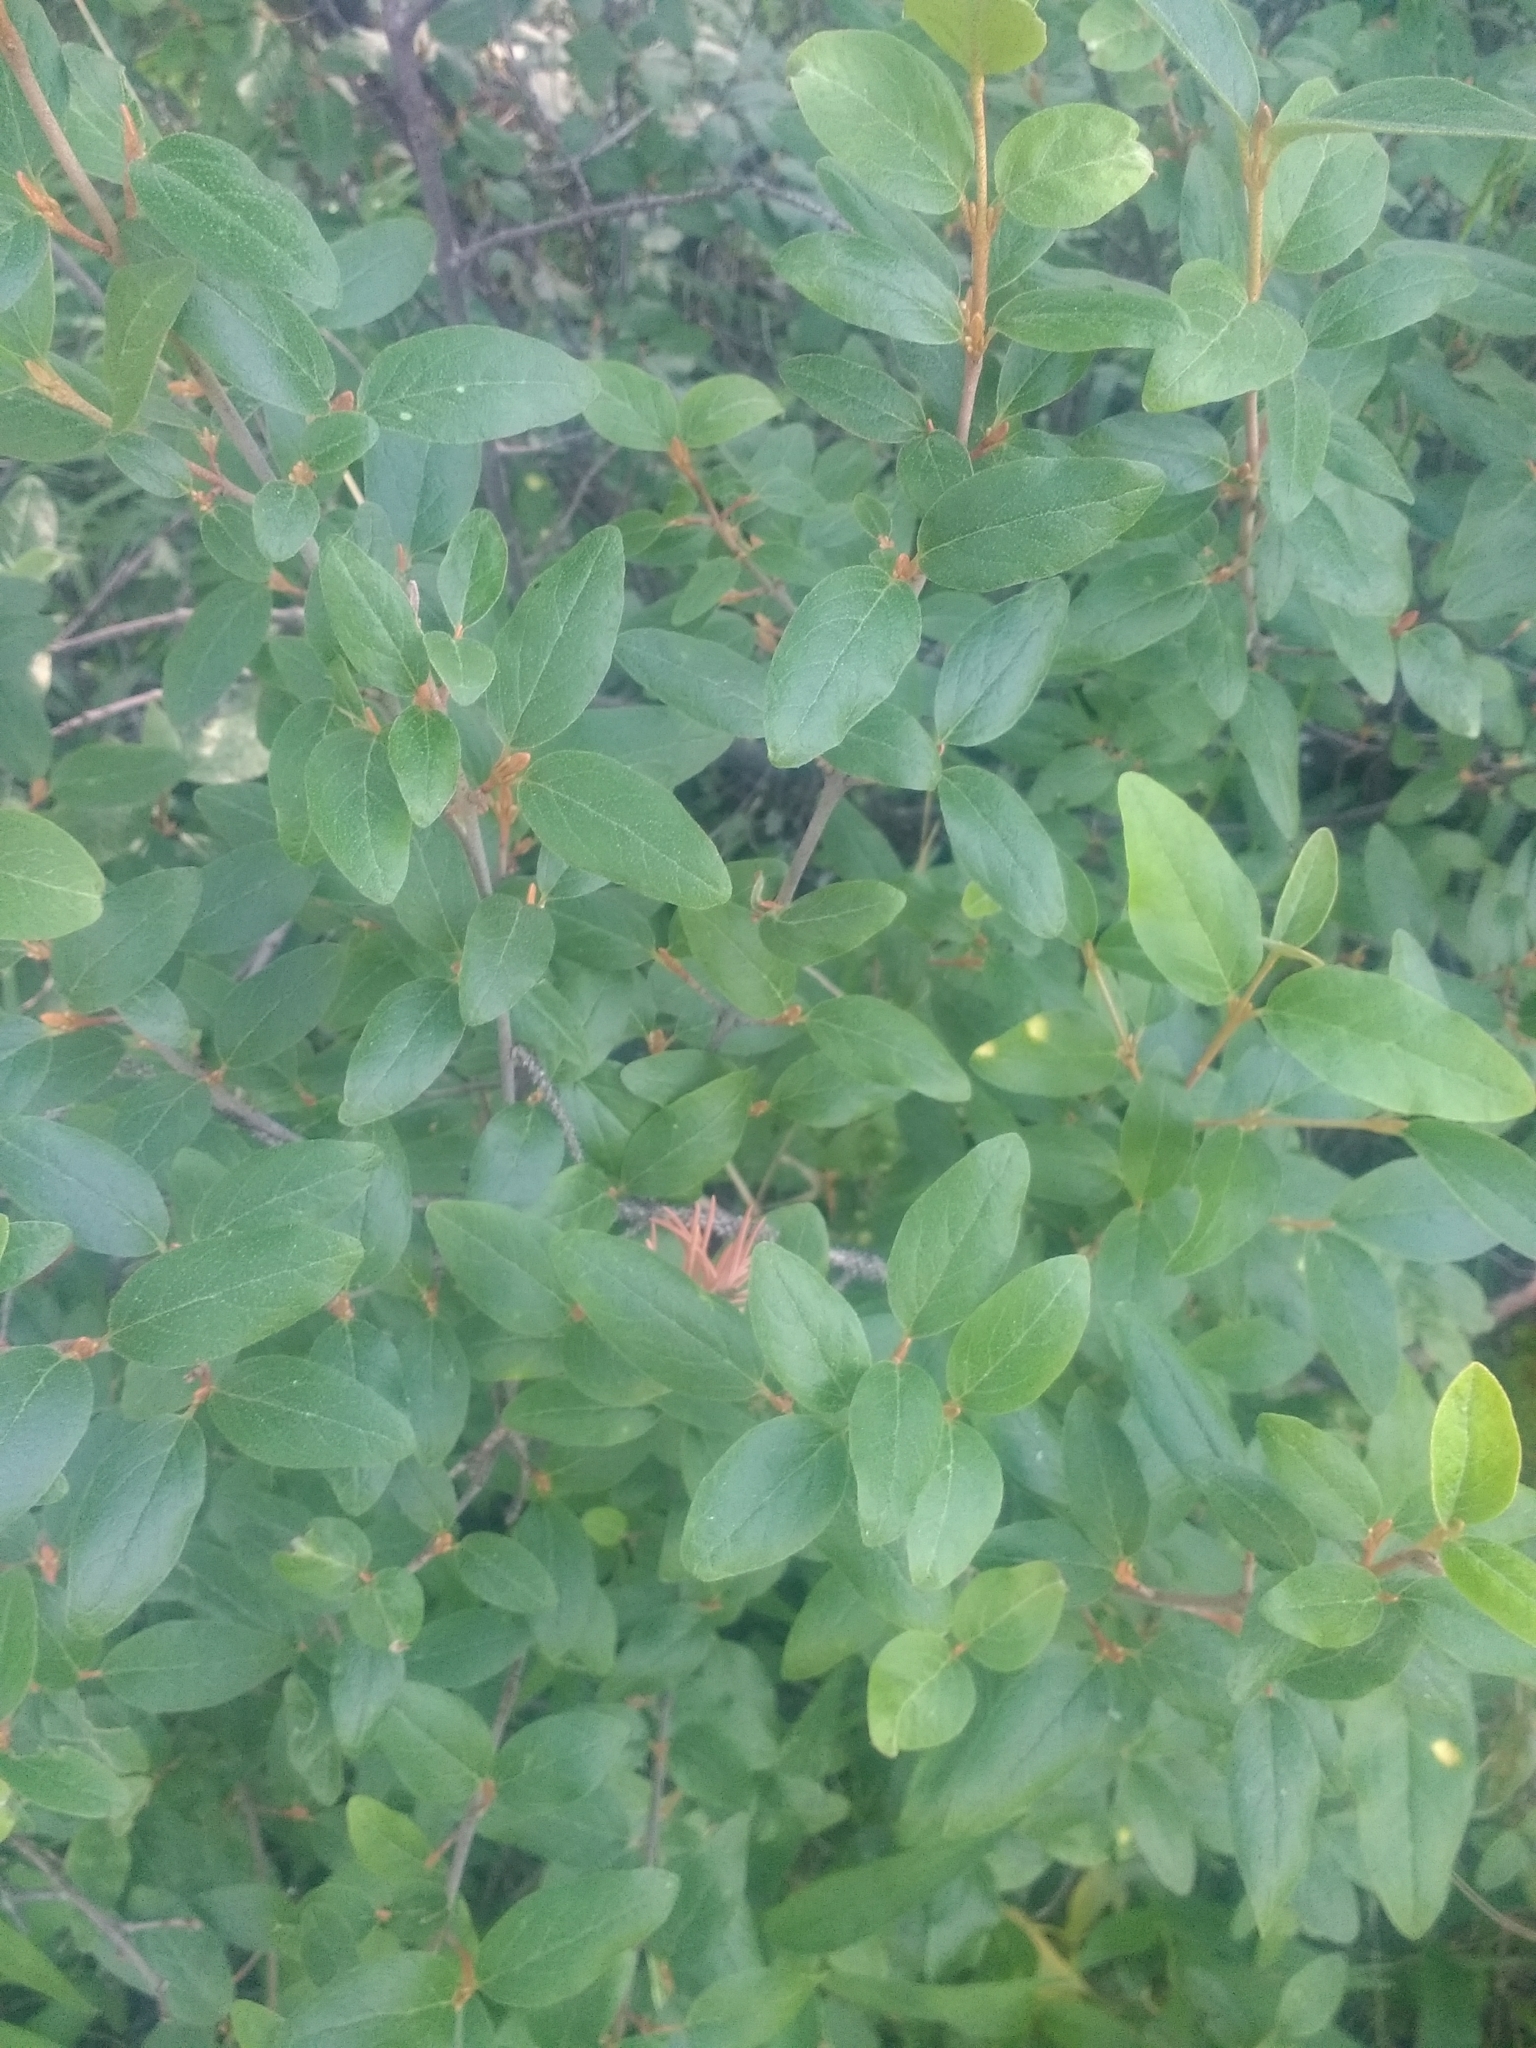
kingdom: Plantae
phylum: Tracheophyta
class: Magnoliopsida
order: Rosales
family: Elaeagnaceae
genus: Shepherdia
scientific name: Shepherdia canadensis
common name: Soapberry
